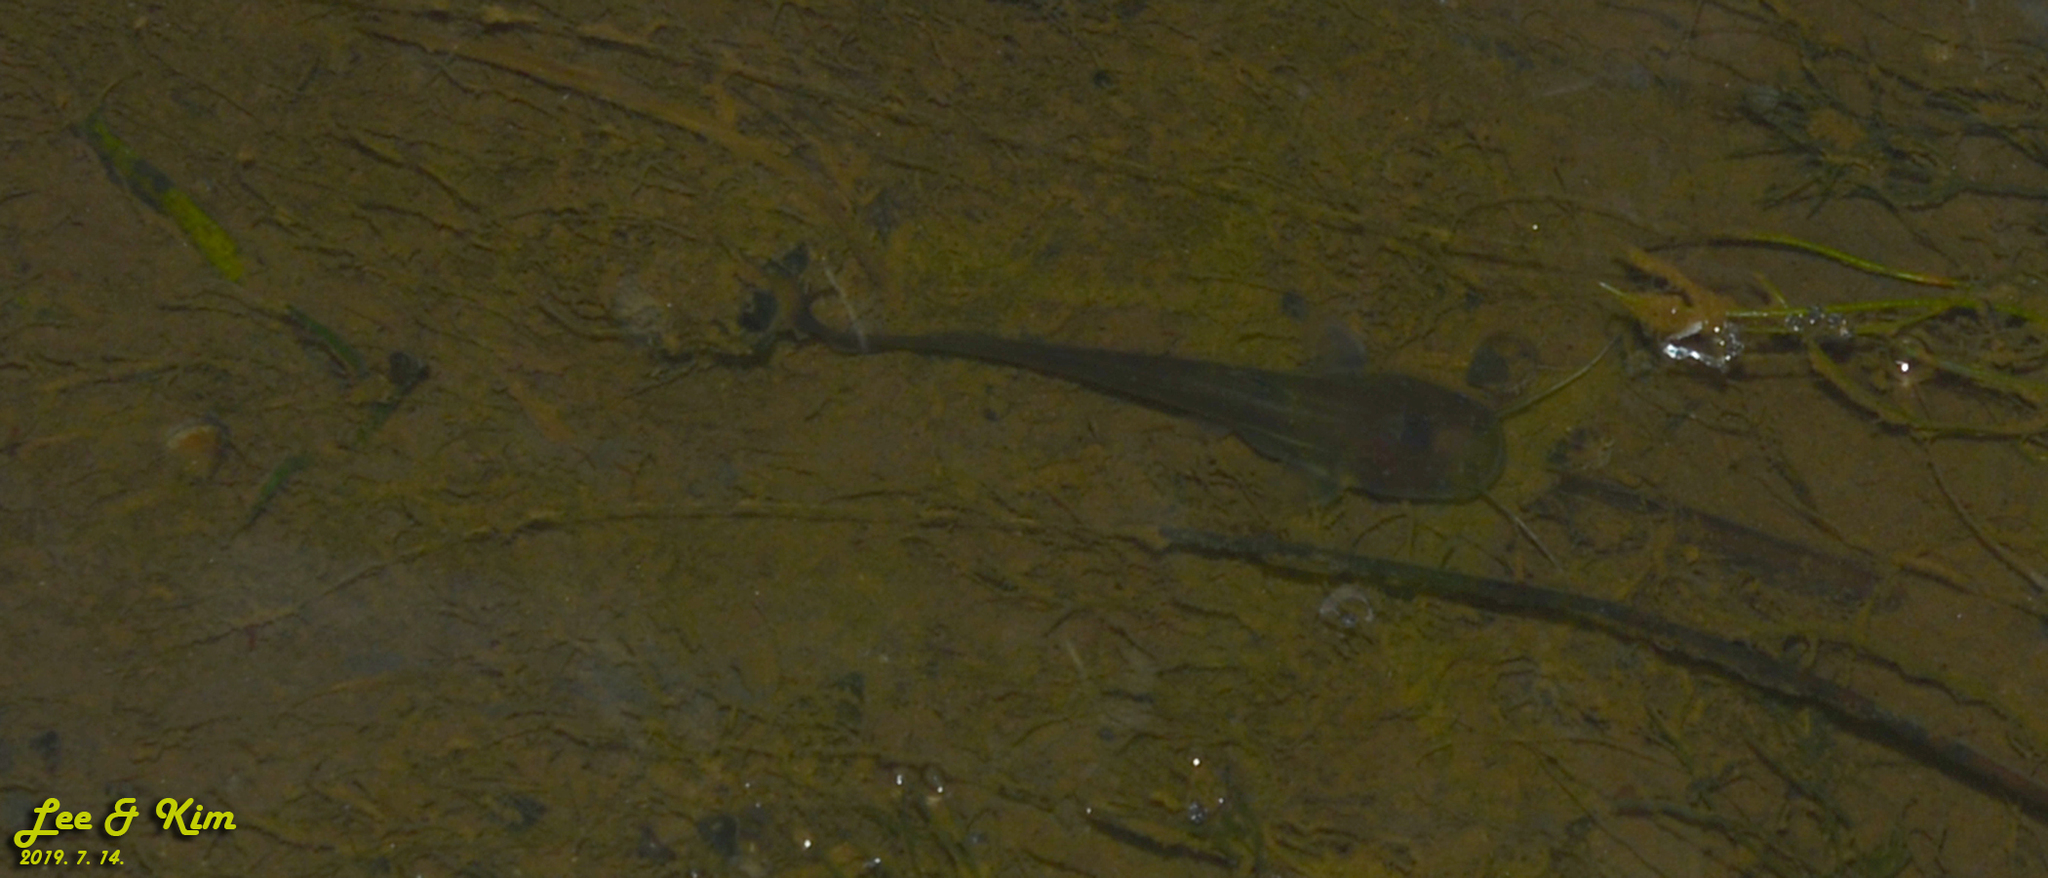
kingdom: Animalia
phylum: Chordata
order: Siluriformes
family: Siluridae
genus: Silurus
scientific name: Silurus asotus
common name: Amur catfish
